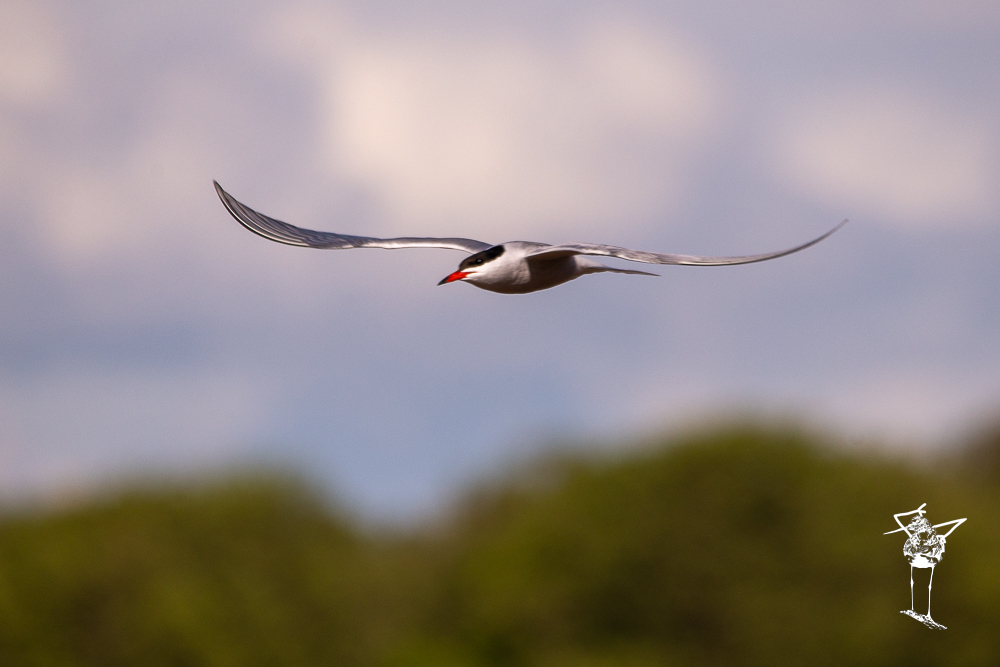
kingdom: Animalia
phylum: Chordata
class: Aves
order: Charadriiformes
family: Laridae
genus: Sterna
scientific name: Sterna hirundo
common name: Common tern
